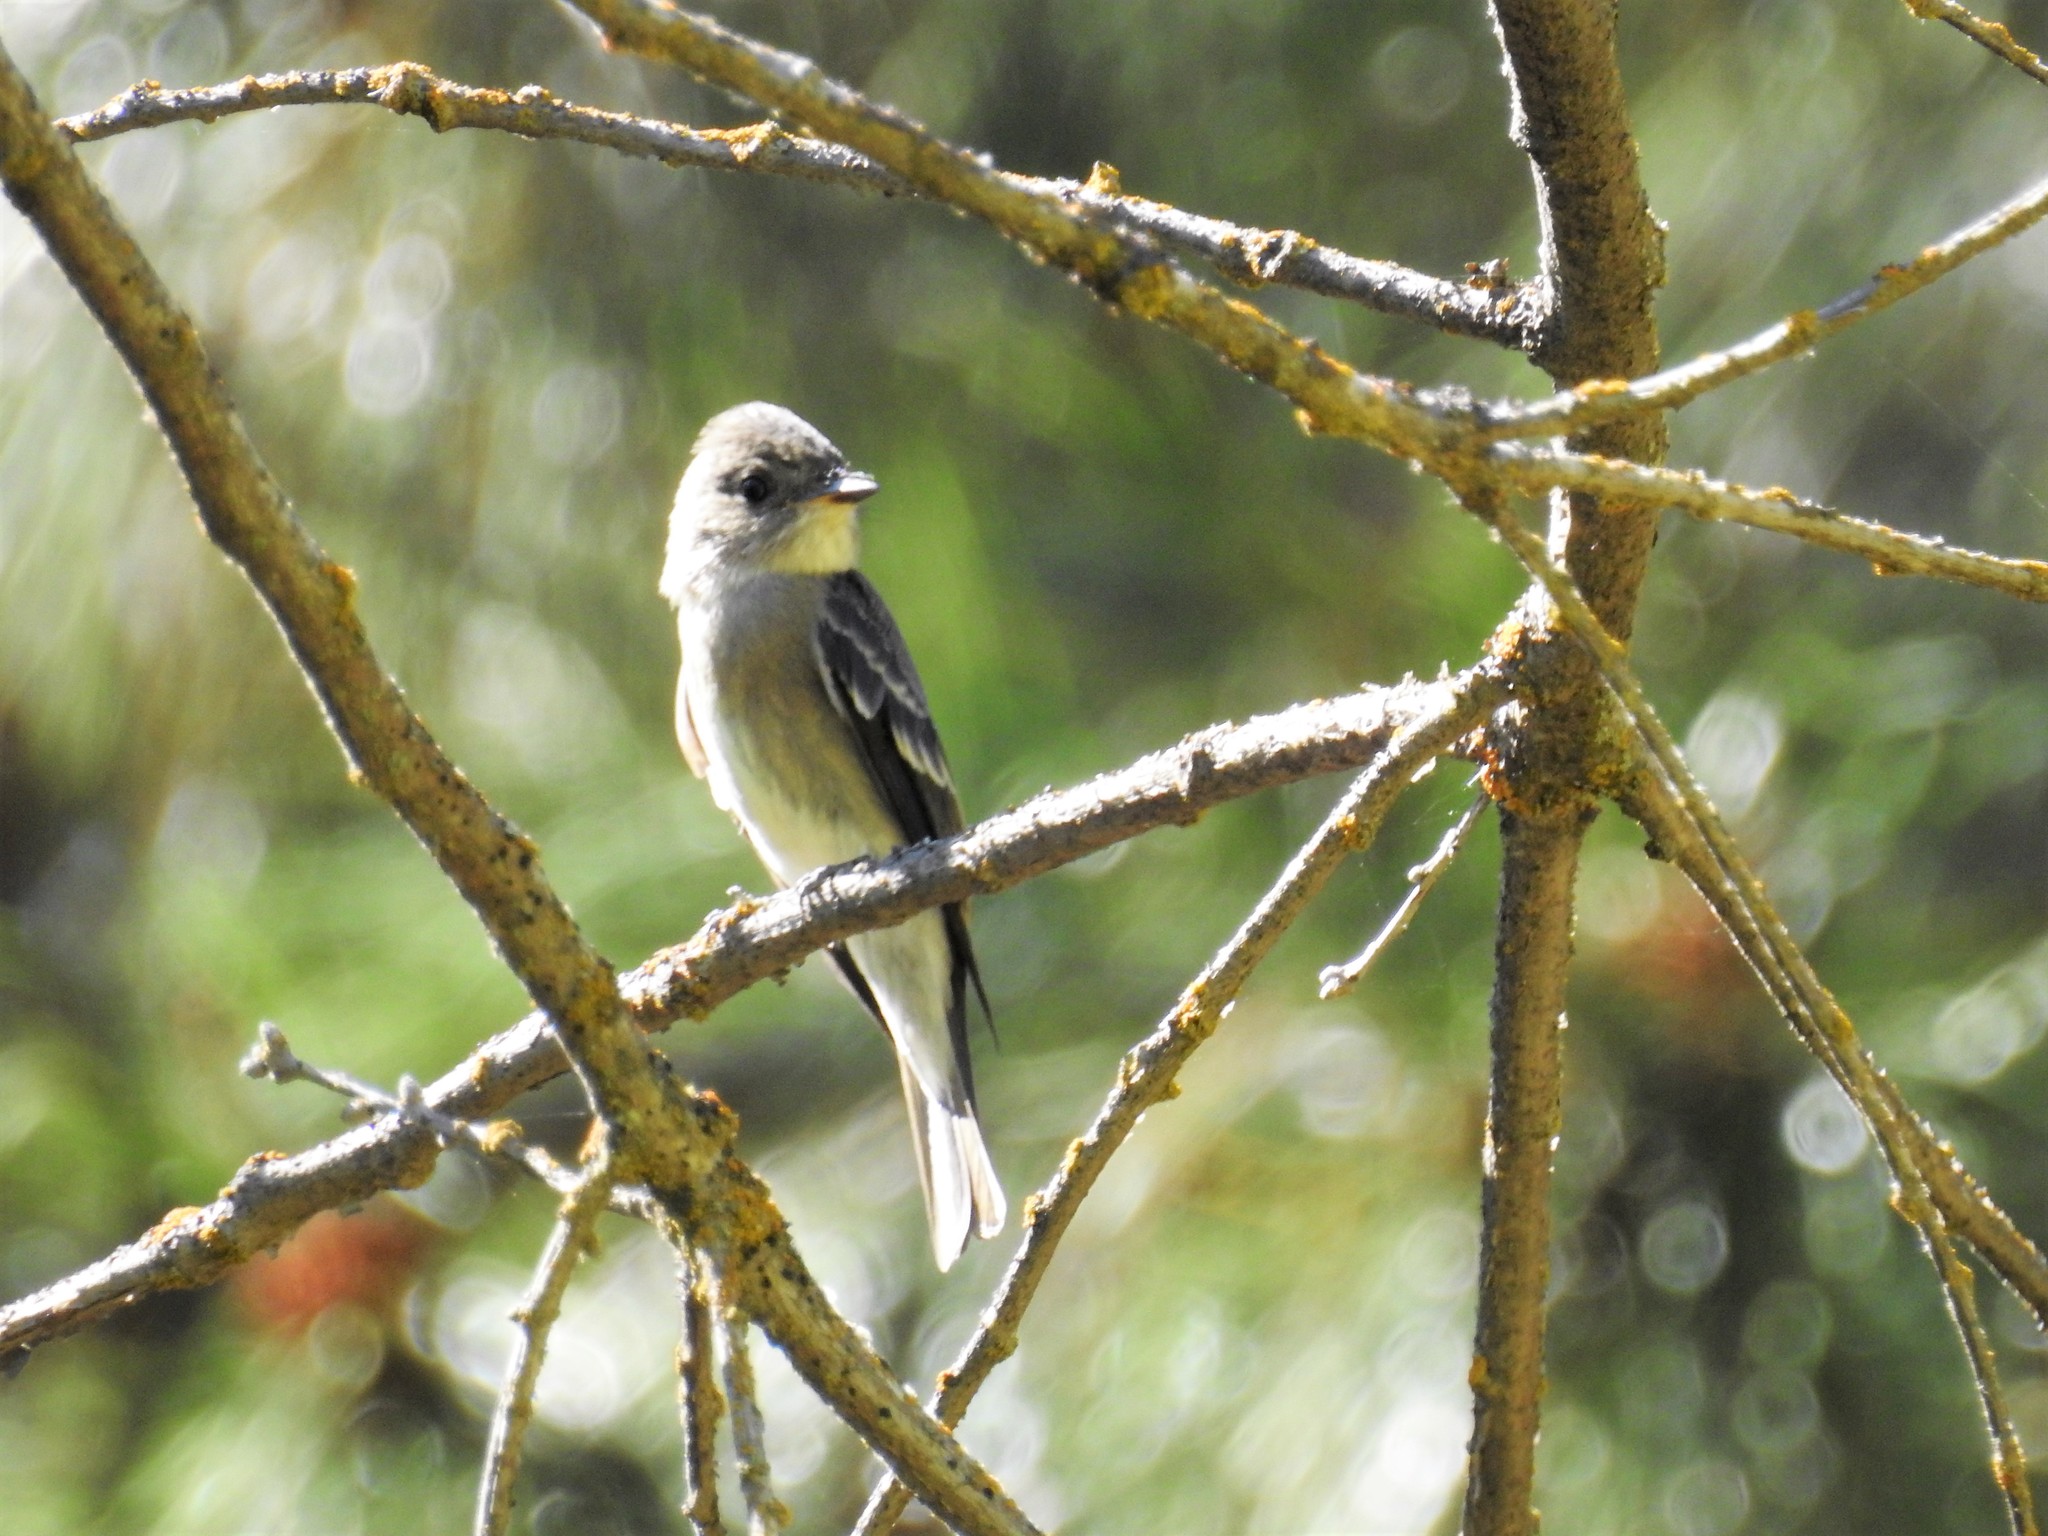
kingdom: Animalia
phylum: Chordata
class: Aves
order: Passeriformes
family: Tyrannidae
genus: Contopus
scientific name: Contopus sordidulus
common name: Western wood-pewee
